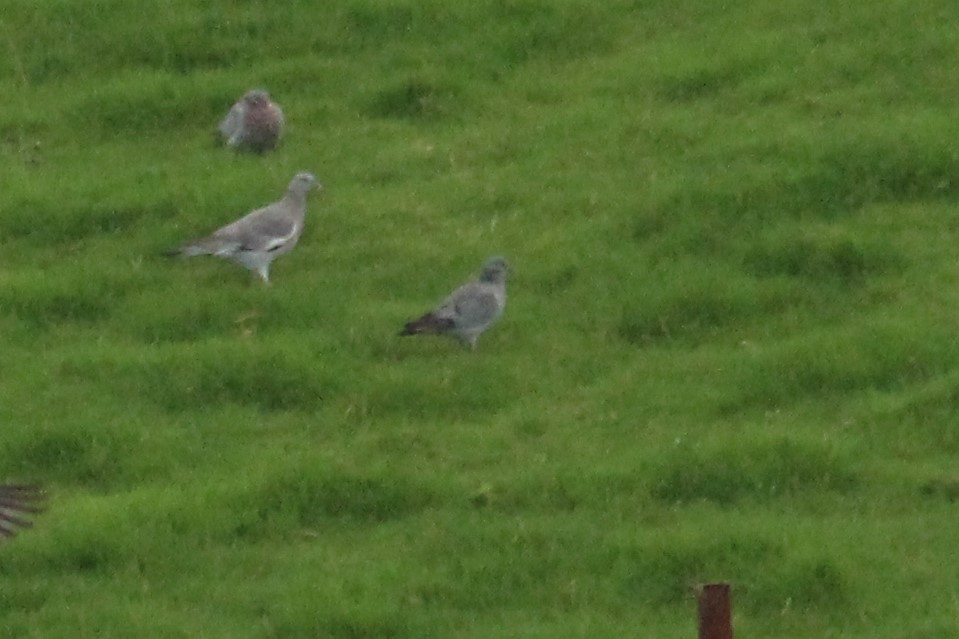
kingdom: Animalia
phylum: Chordata
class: Aves
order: Columbiformes
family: Columbidae
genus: Columba
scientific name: Columba oenas
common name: Stock dove
